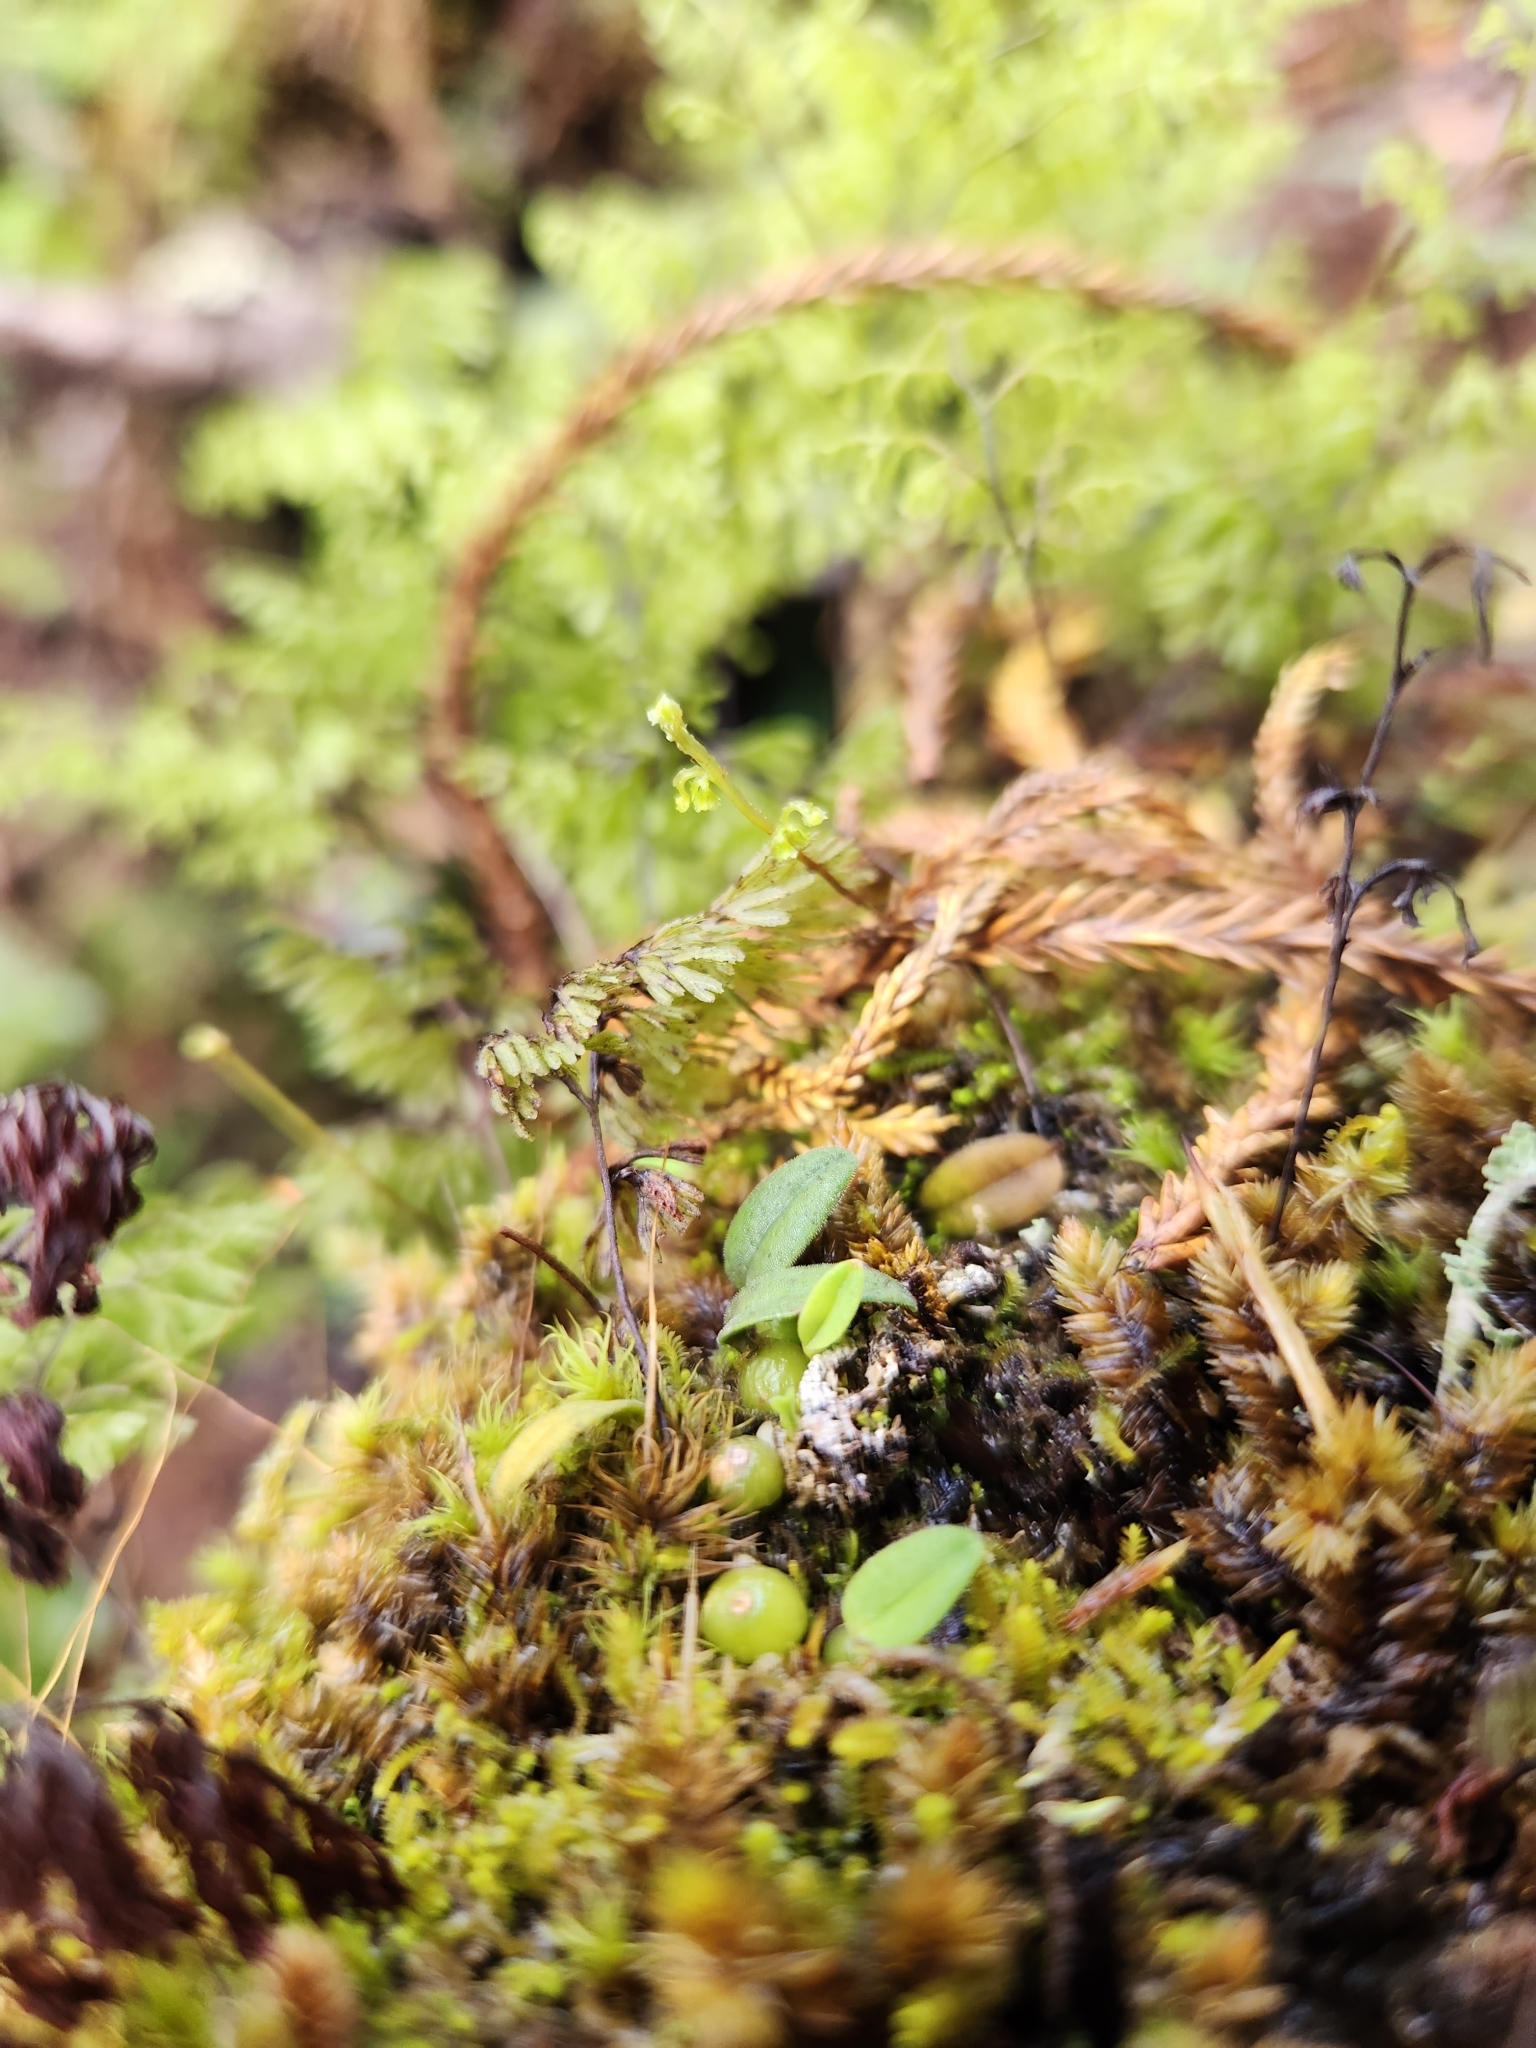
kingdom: Plantae
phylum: Tracheophyta
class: Liliopsida
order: Asparagales
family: Orchidaceae
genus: Bulbophyllum
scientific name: Bulbophyllum pygmaeum
